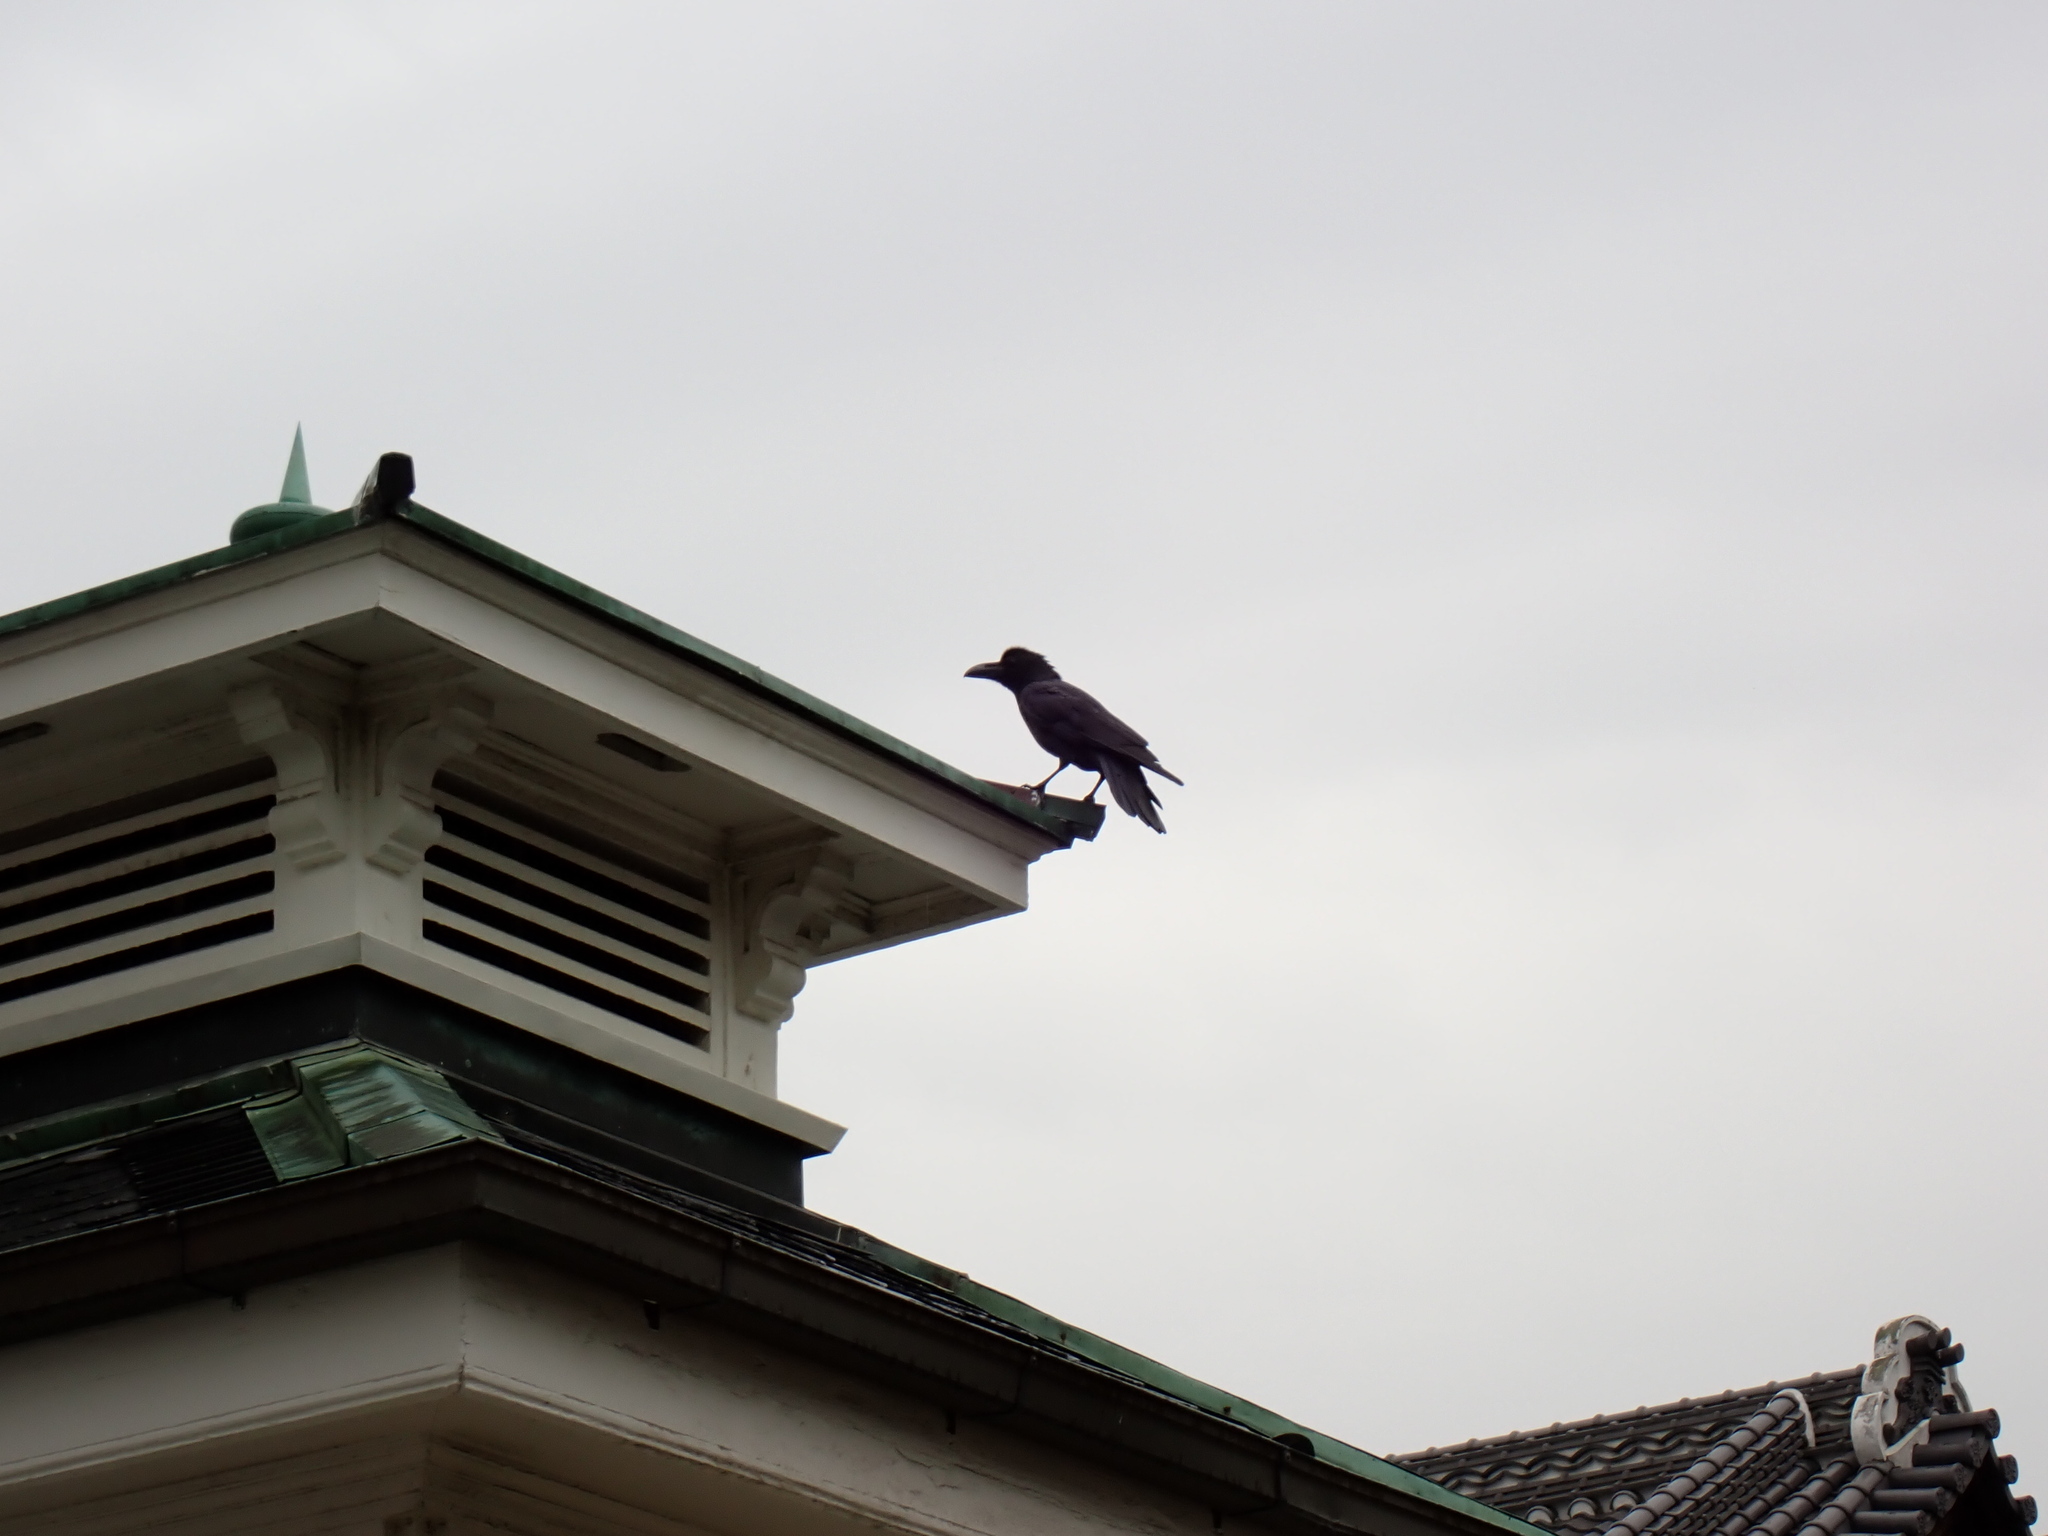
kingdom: Animalia
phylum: Chordata
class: Aves
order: Passeriformes
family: Corvidae
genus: Corvus
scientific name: Corvus macrorhynchos
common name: Large-billed crow
